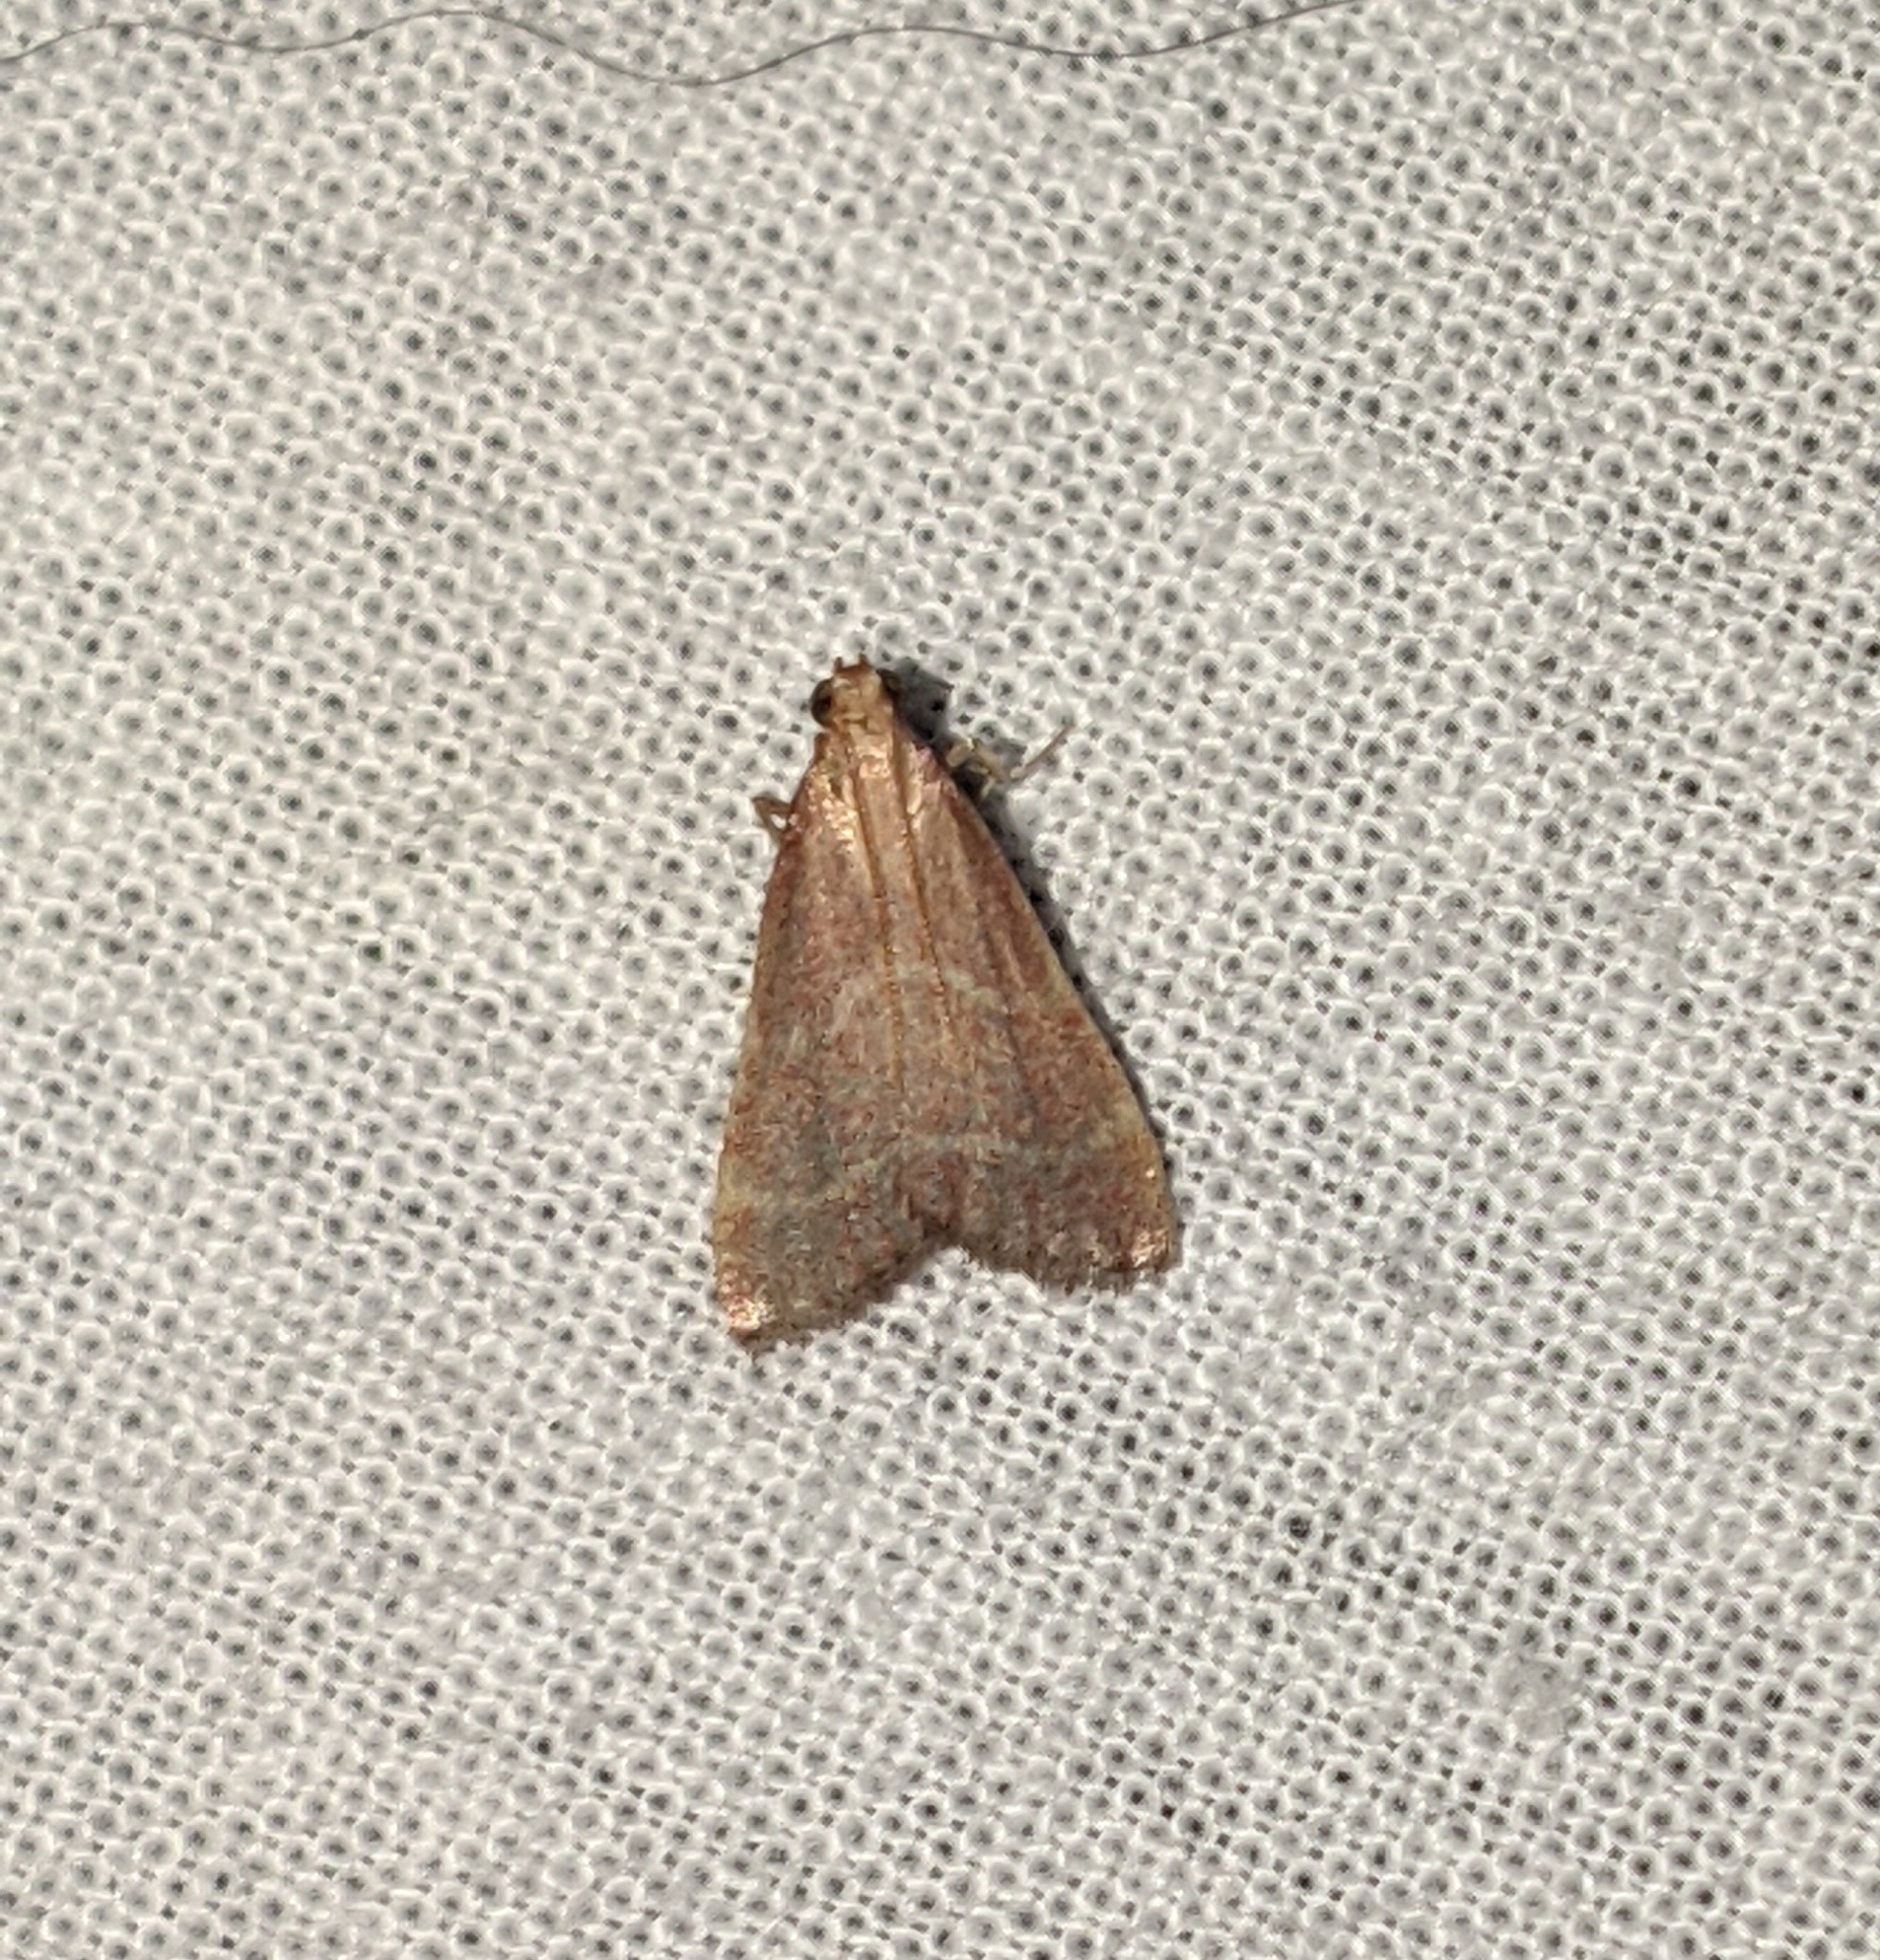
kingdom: Animalia
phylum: Arthropoda
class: Insecta
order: Lepidoptera
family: Pyralidae
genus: Arta
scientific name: Arta epicoenalis
